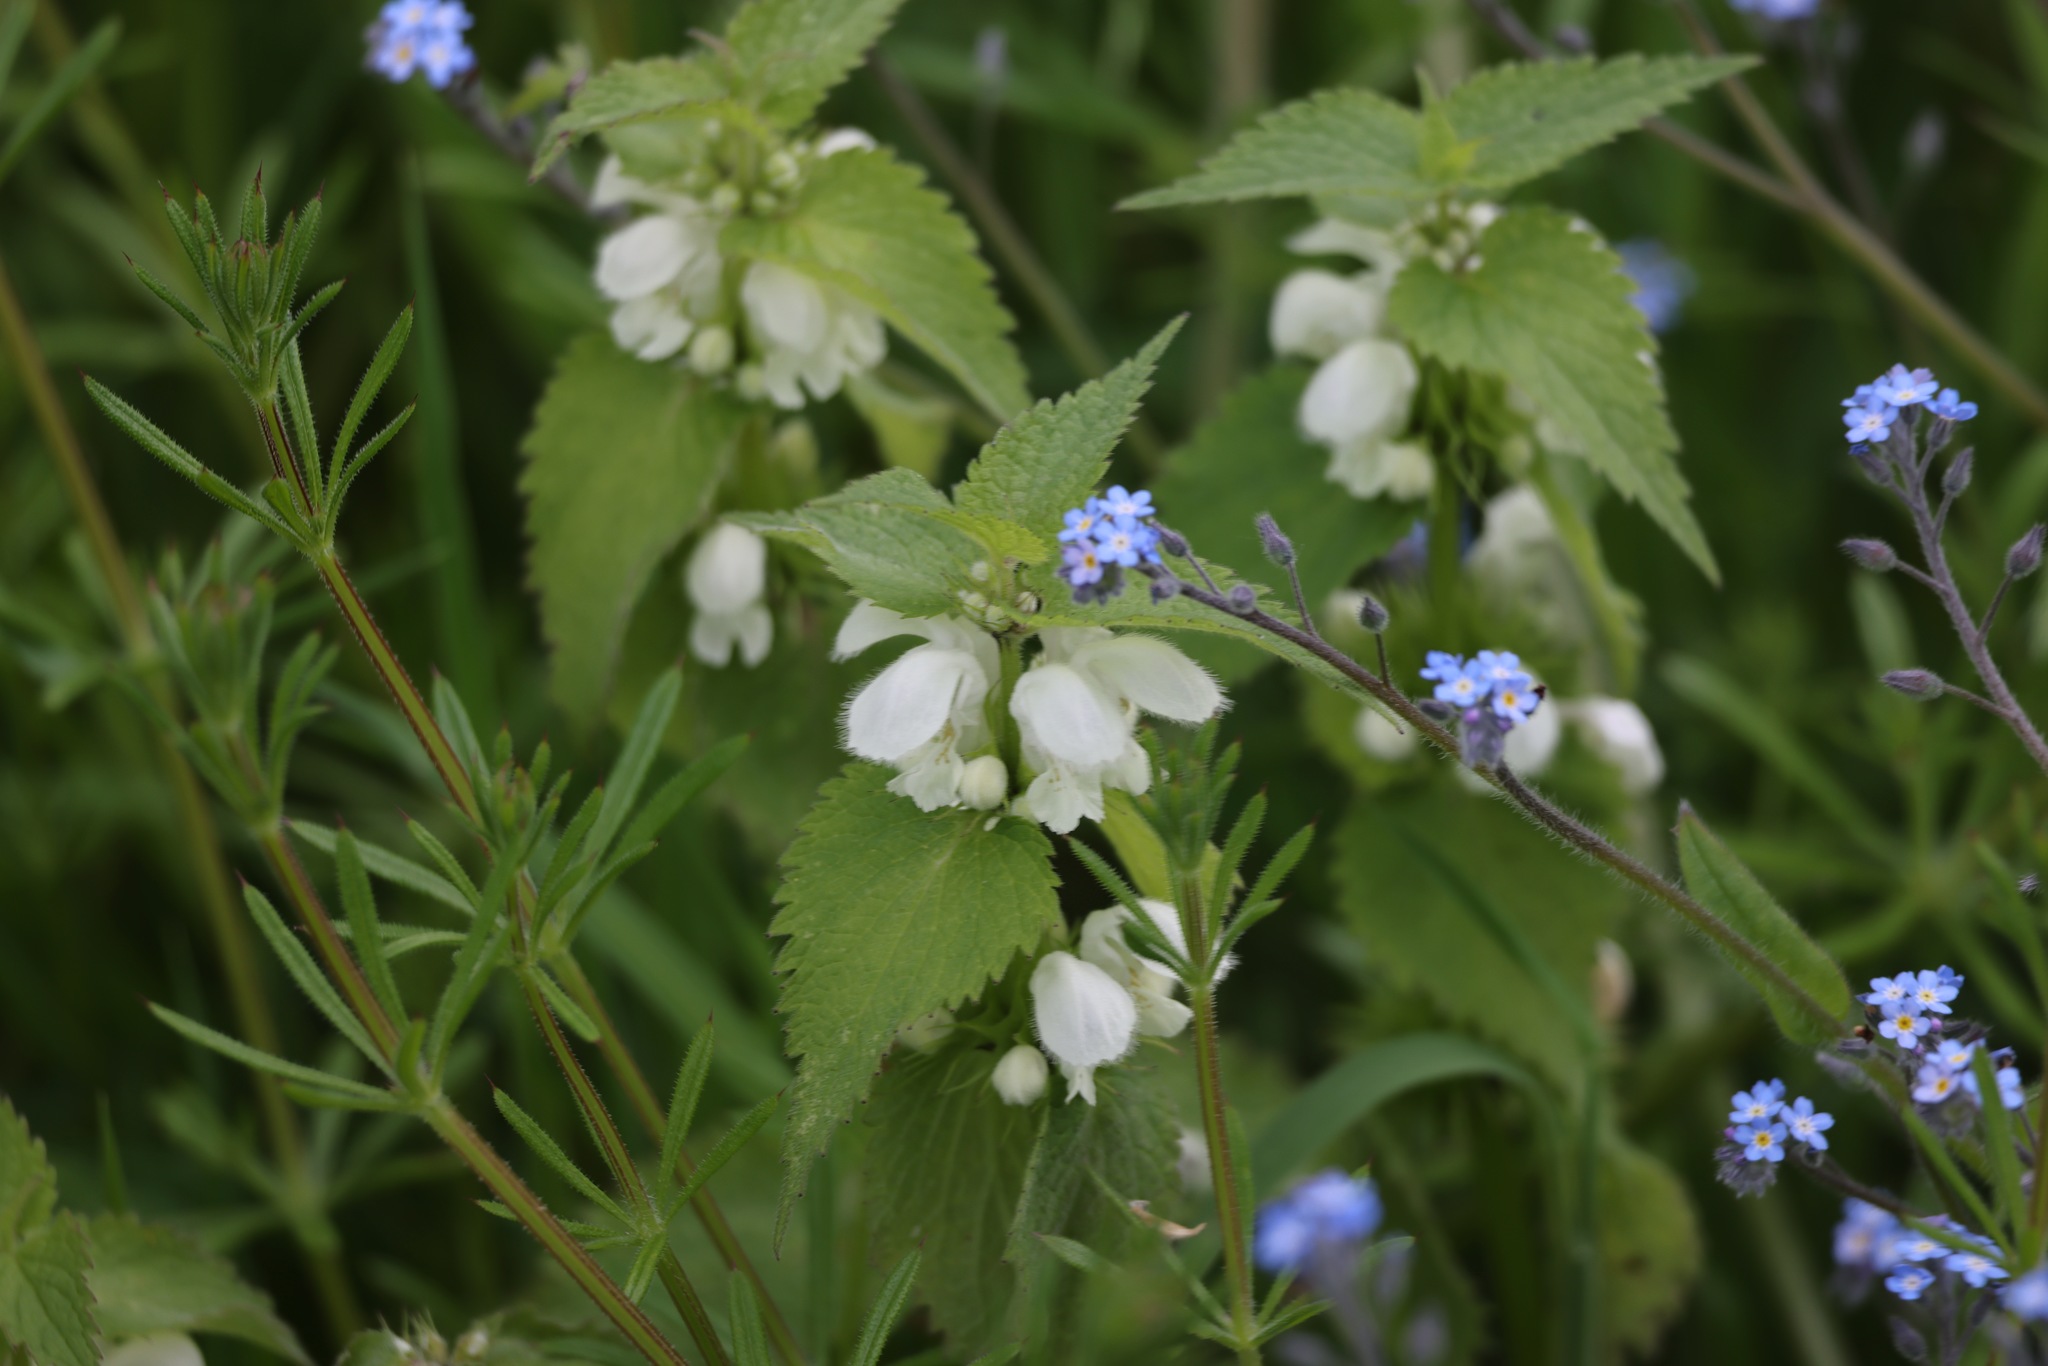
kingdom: Plantae
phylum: Tracheophyta
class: Magnoliopsida
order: Lamiales
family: Lamiaceae
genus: Lamium
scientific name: Lamium album
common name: White dead-nettle
